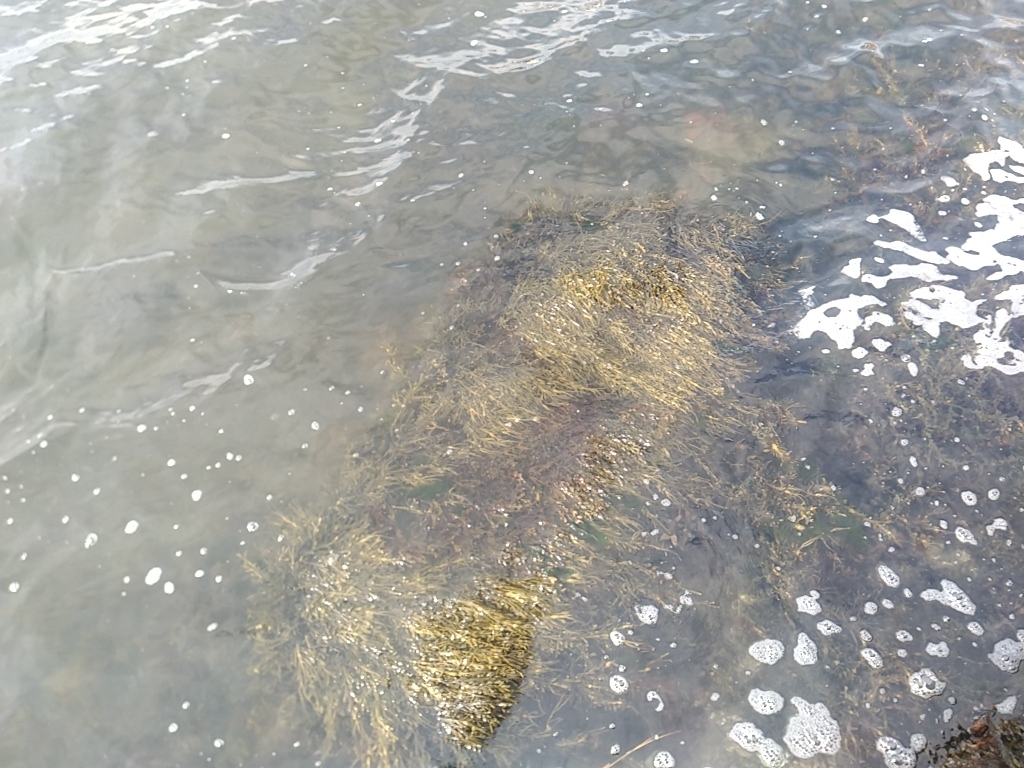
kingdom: Chromista
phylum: Ochrophyta
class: Phaeophyceae
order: Fucales
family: Fucaceae
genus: Ascophyllum
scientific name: Ascophyllum nodosum
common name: Knotted wrack
